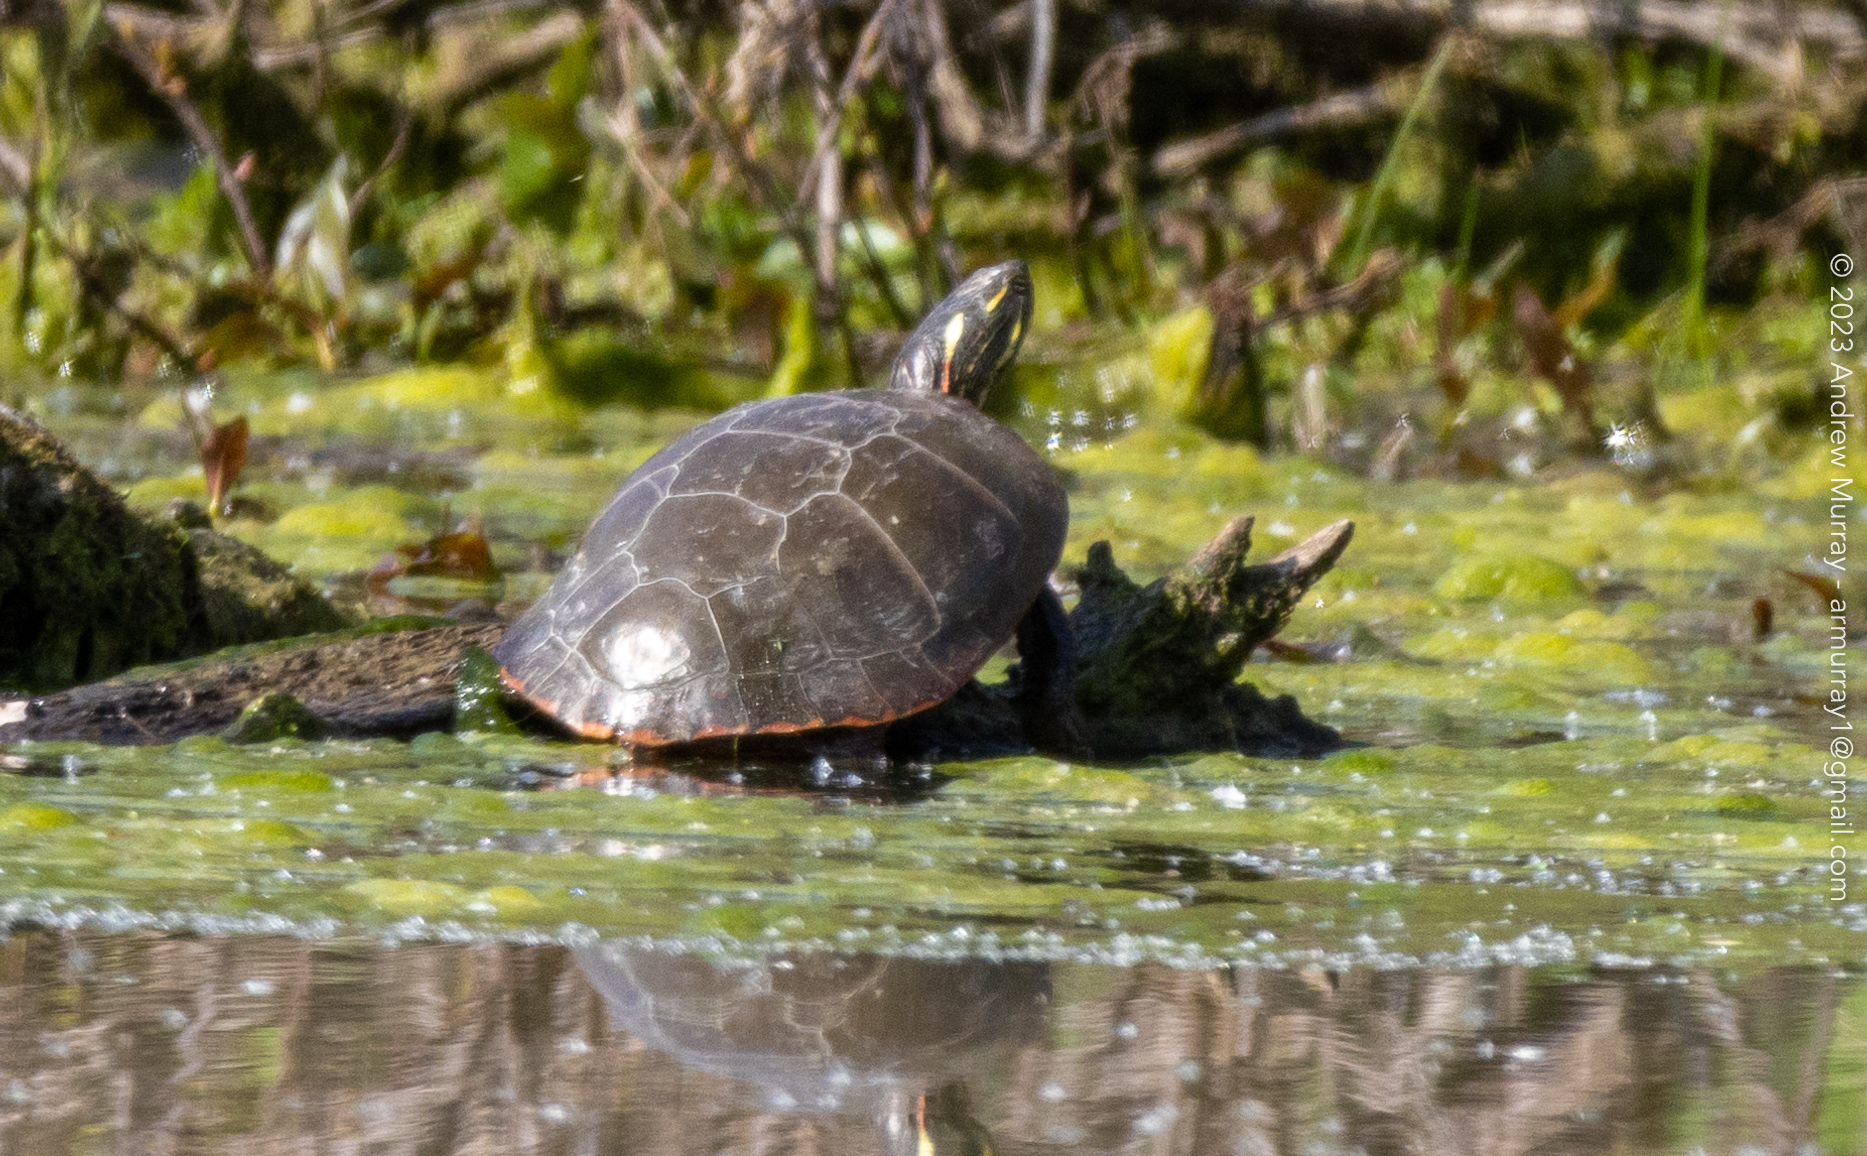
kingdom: Animalia
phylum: Chordata
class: Testudines
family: Emydidae
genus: Chrysemys
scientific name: Chrysemys picta
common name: Painted turtle
